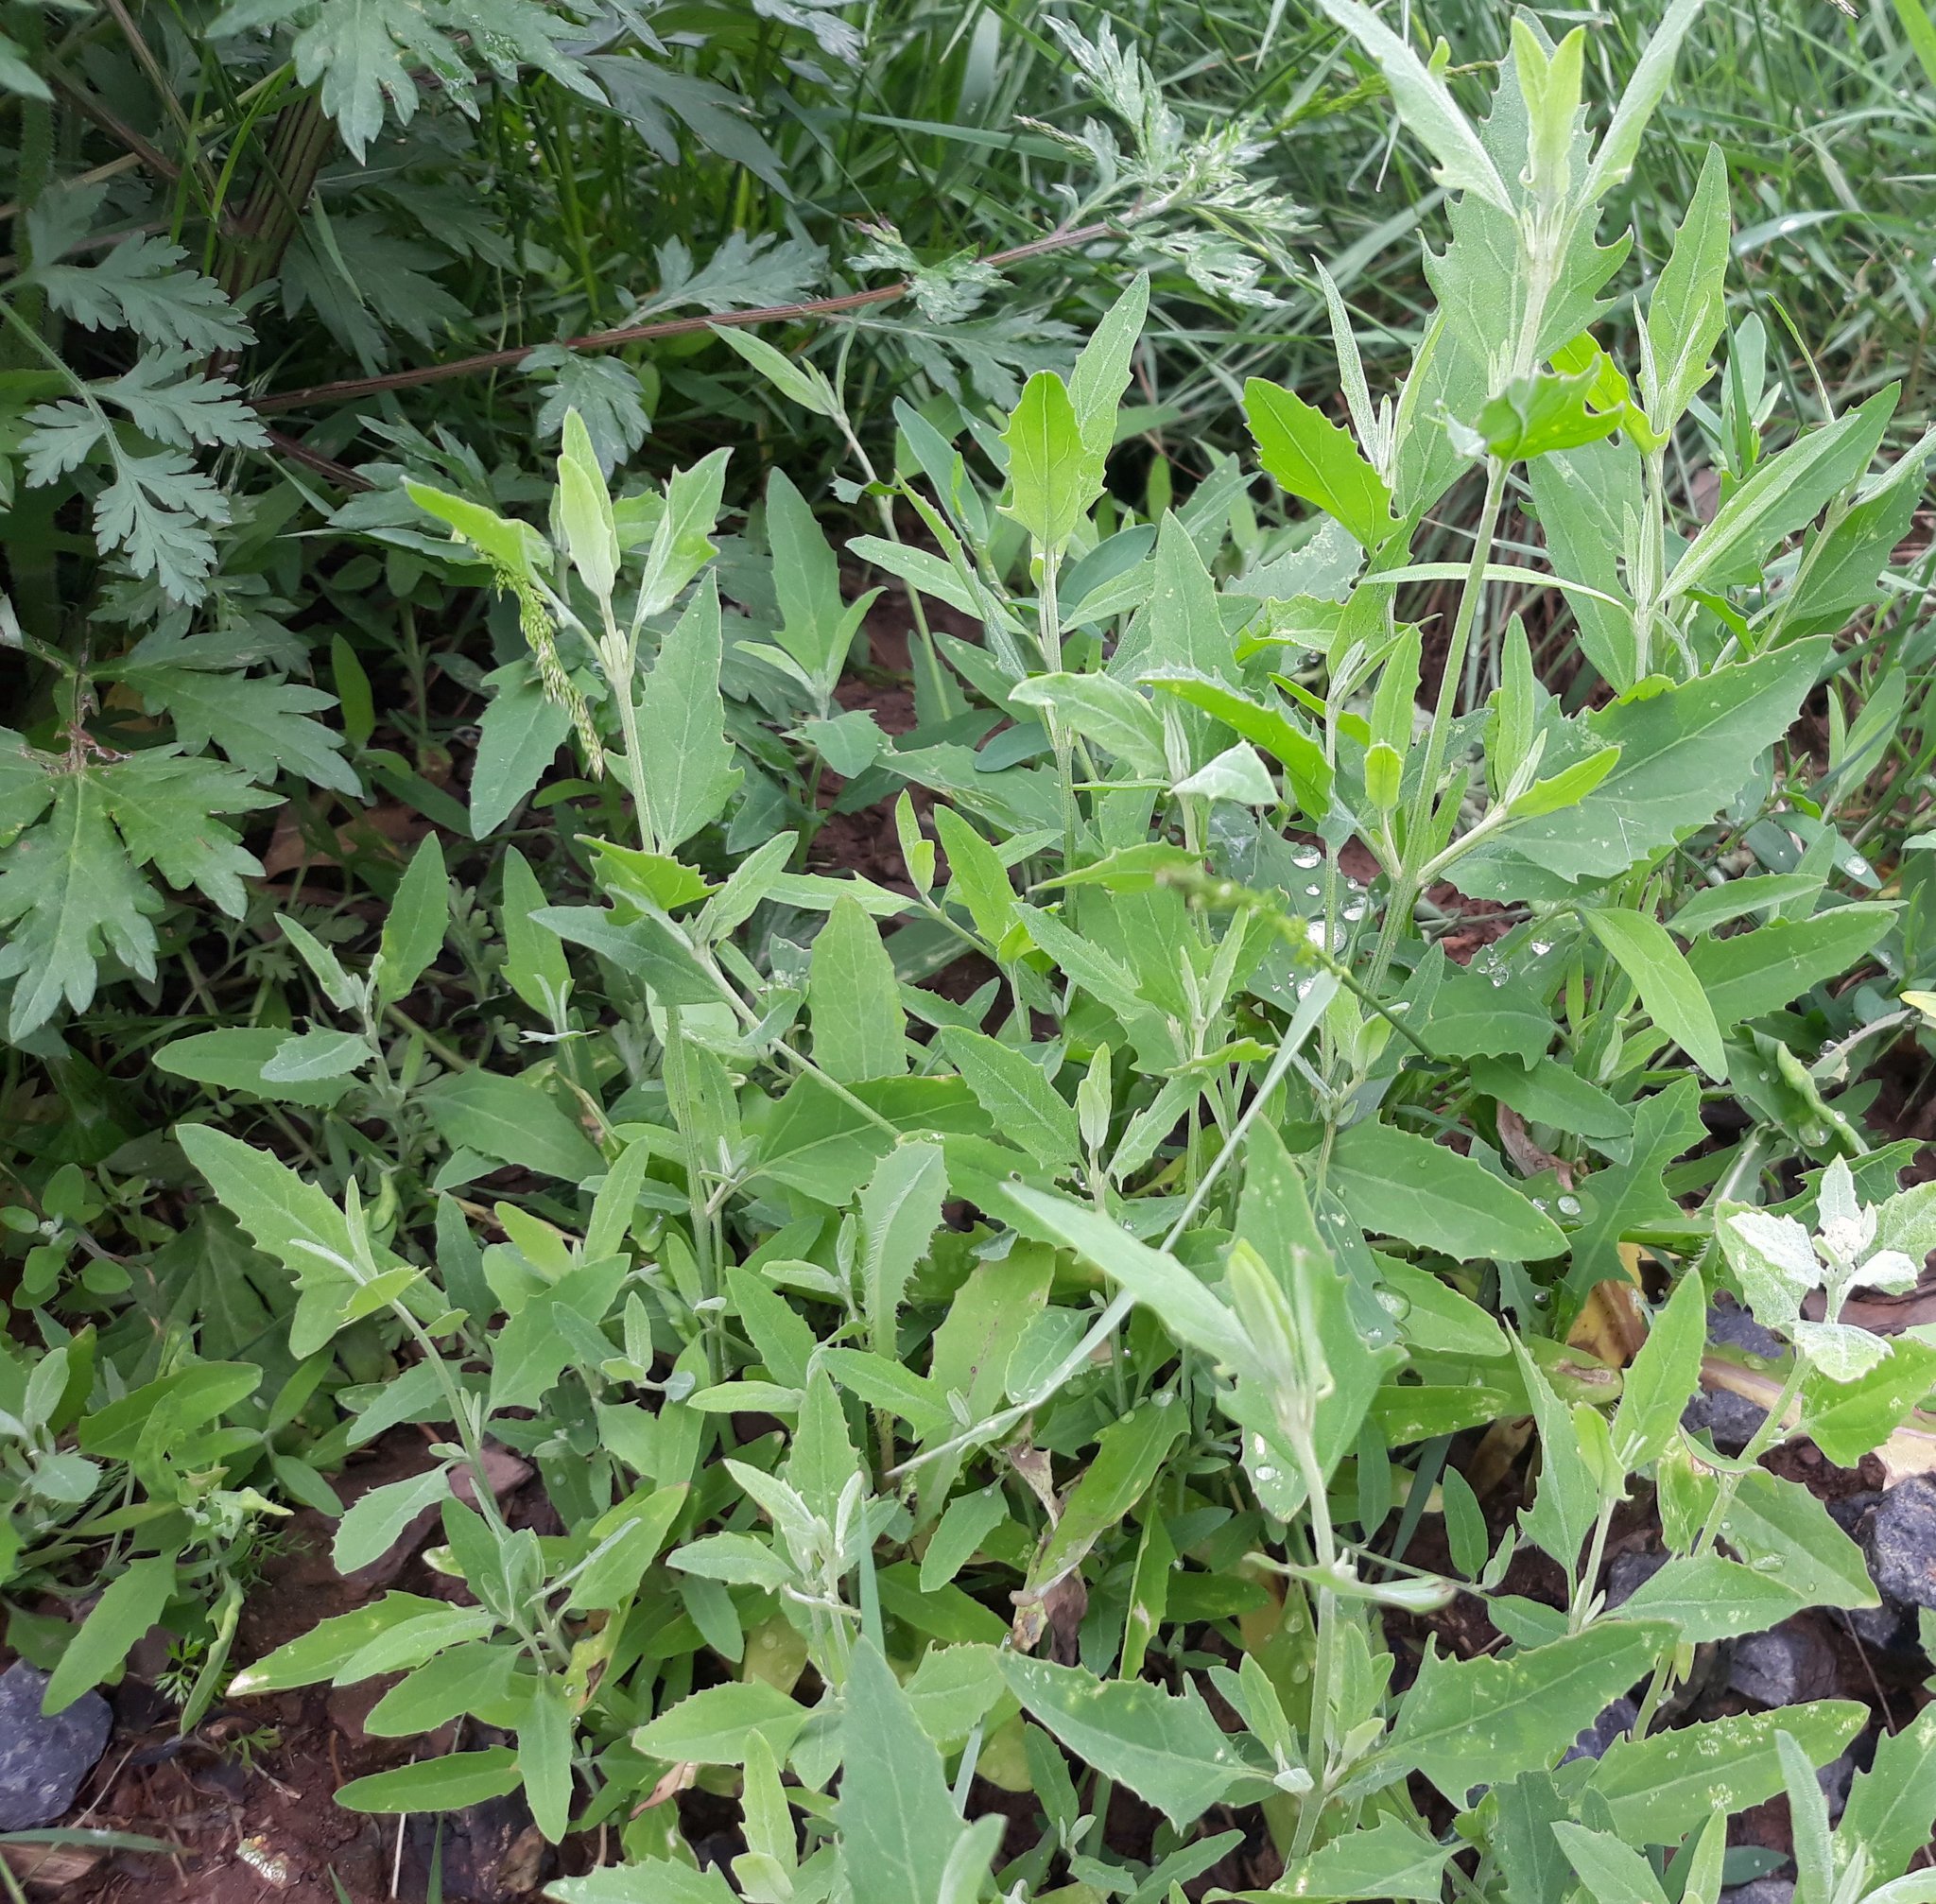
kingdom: Plantae
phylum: Tracheophyta
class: Magnoliopsida
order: Caryophyllales
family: Amaranthaceae
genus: Chenopodium
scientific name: Chenopodium album
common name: Fat-hen
